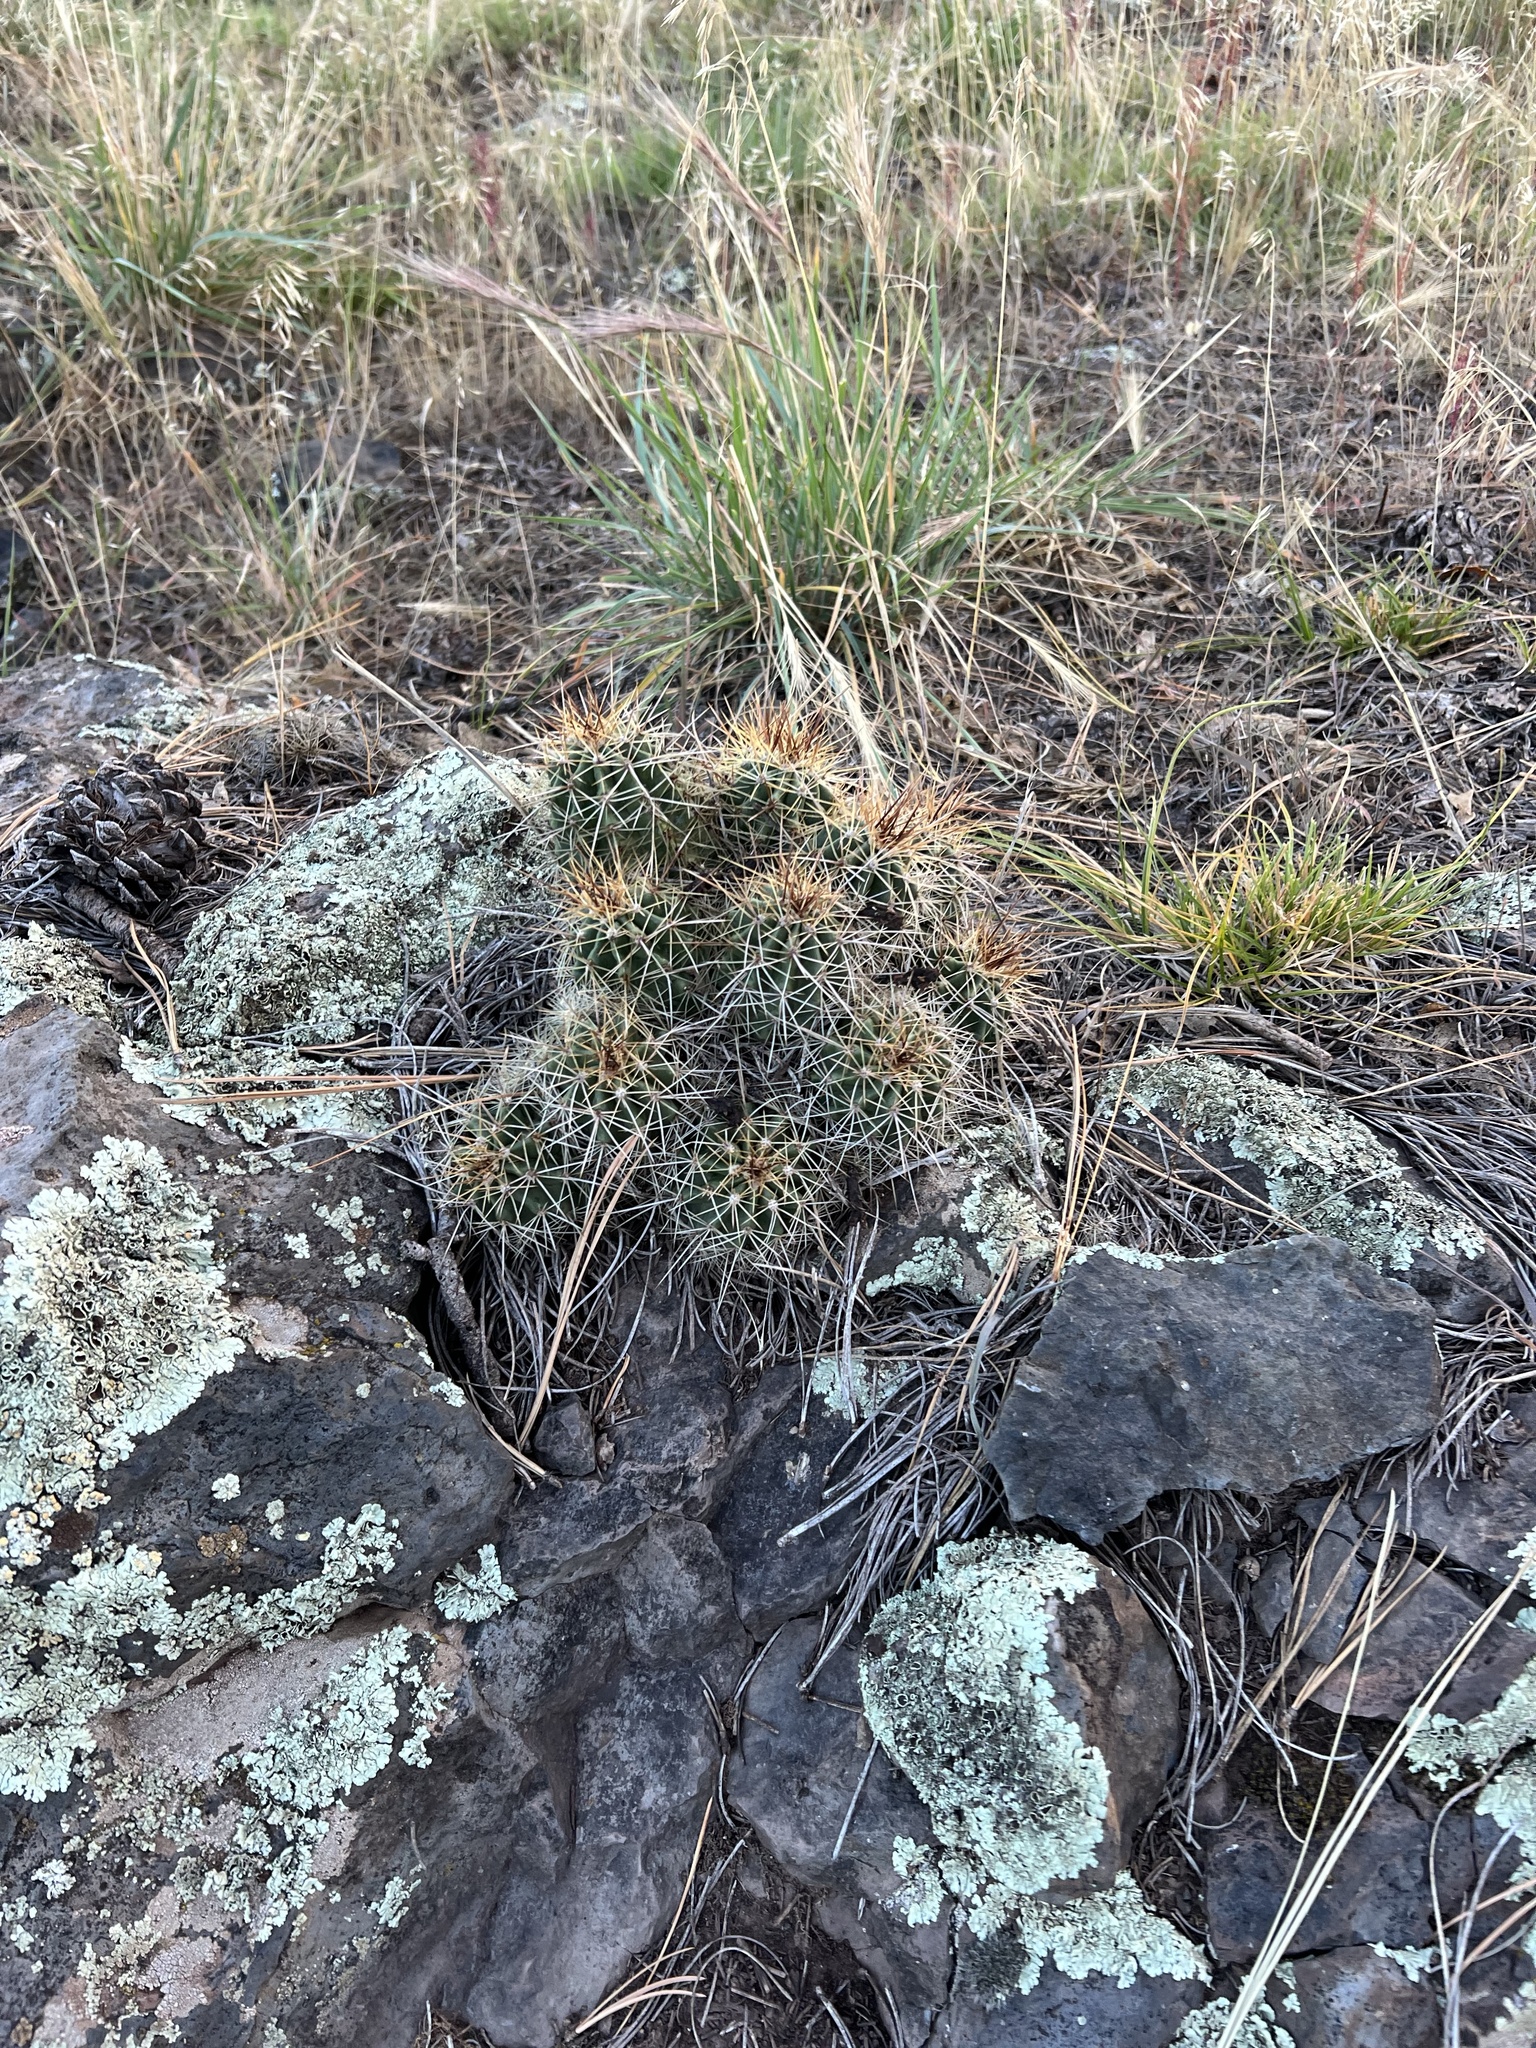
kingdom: Plantae
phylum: Tracheophyta
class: Magnoliopsida
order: Caryophyllales
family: Cactaceae
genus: Echinocereus
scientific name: Echinocereus bakeri
